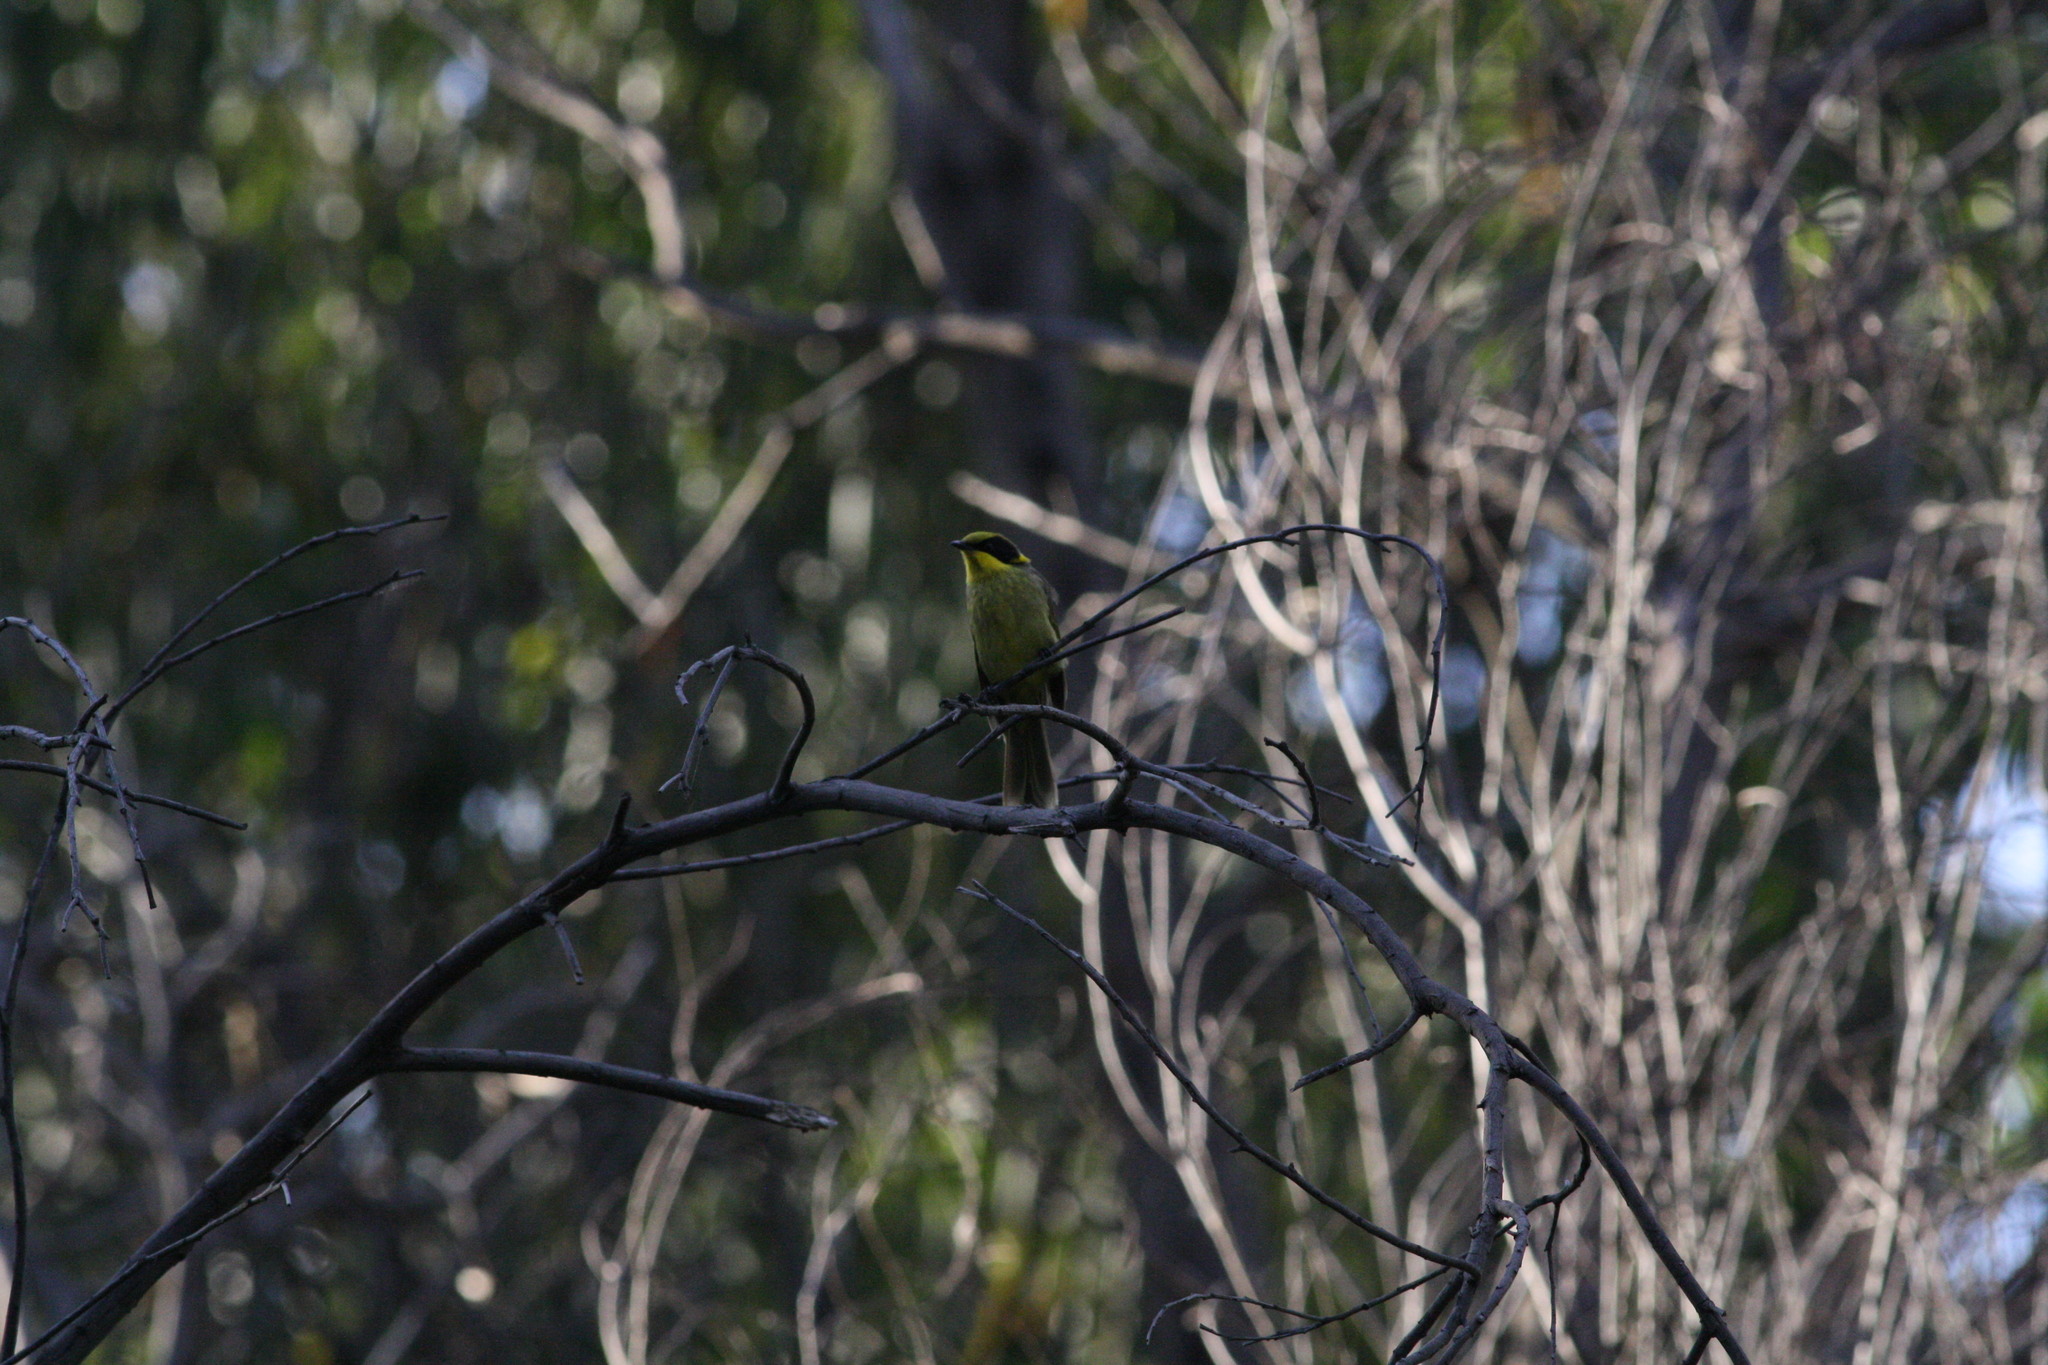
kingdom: Animalia
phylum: Chordata
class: Aves
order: Passeriformes
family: Meliphagidae
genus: Lichenostomus
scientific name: Lichenostomus melanops
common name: Yellow-tufted honeyeater
